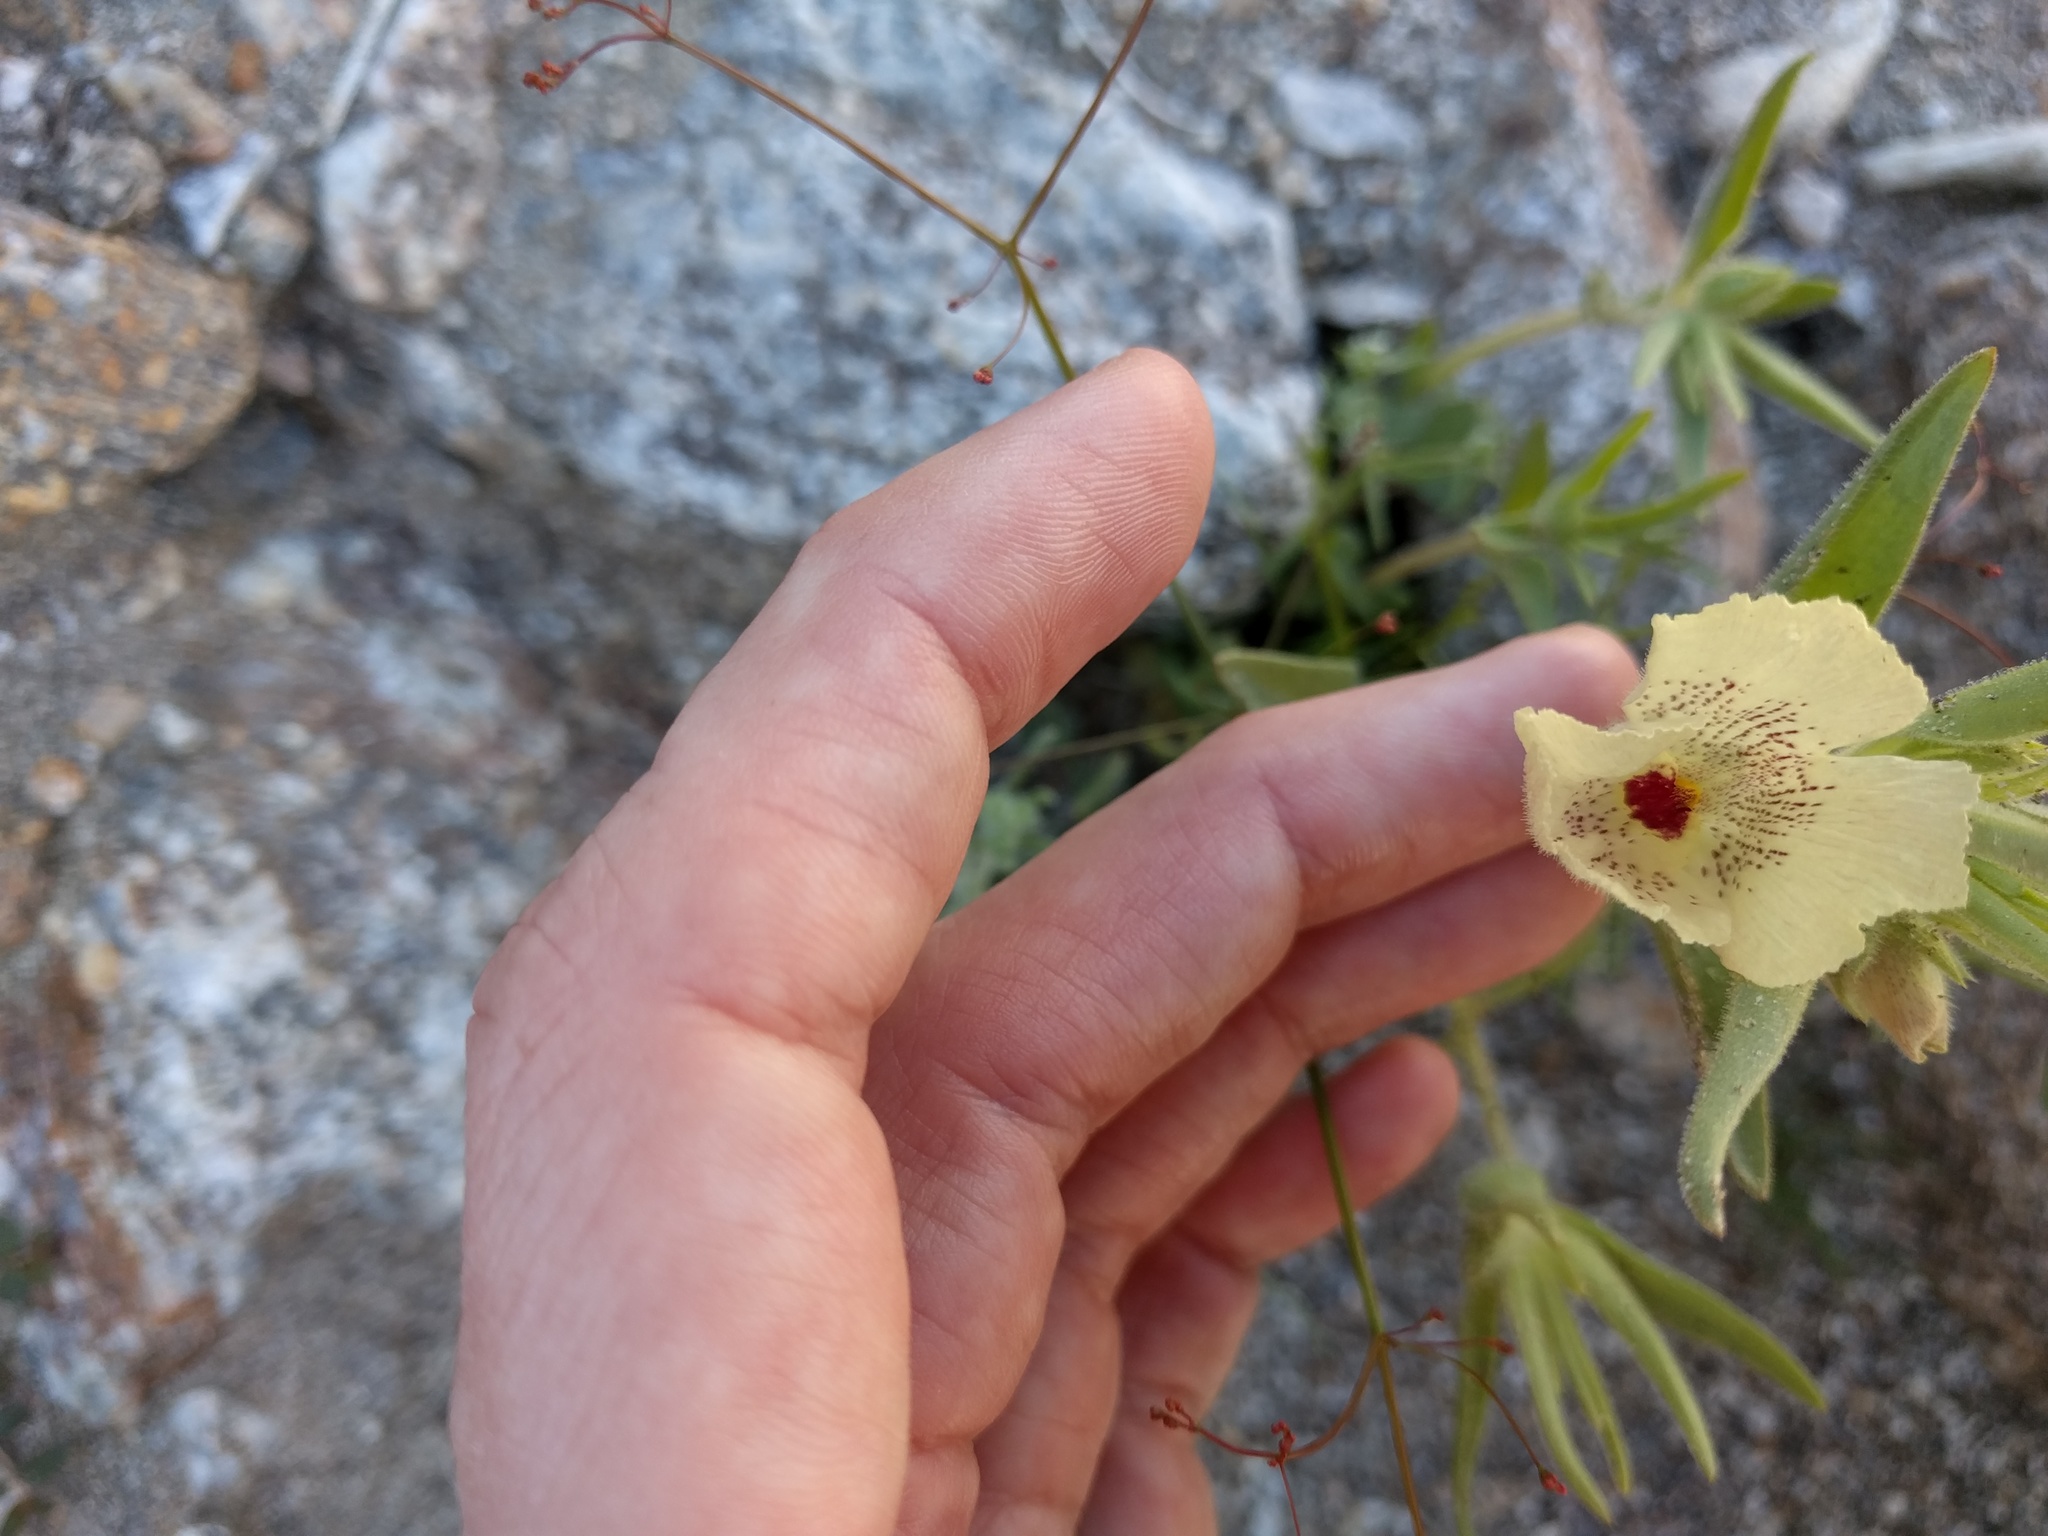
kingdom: Plantae
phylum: Tracheophyta
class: Magnoliopsida
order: Lamiales
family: Plantaginaceae
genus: Mohavea
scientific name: Mohavea confertiflora
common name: Ghost flower
